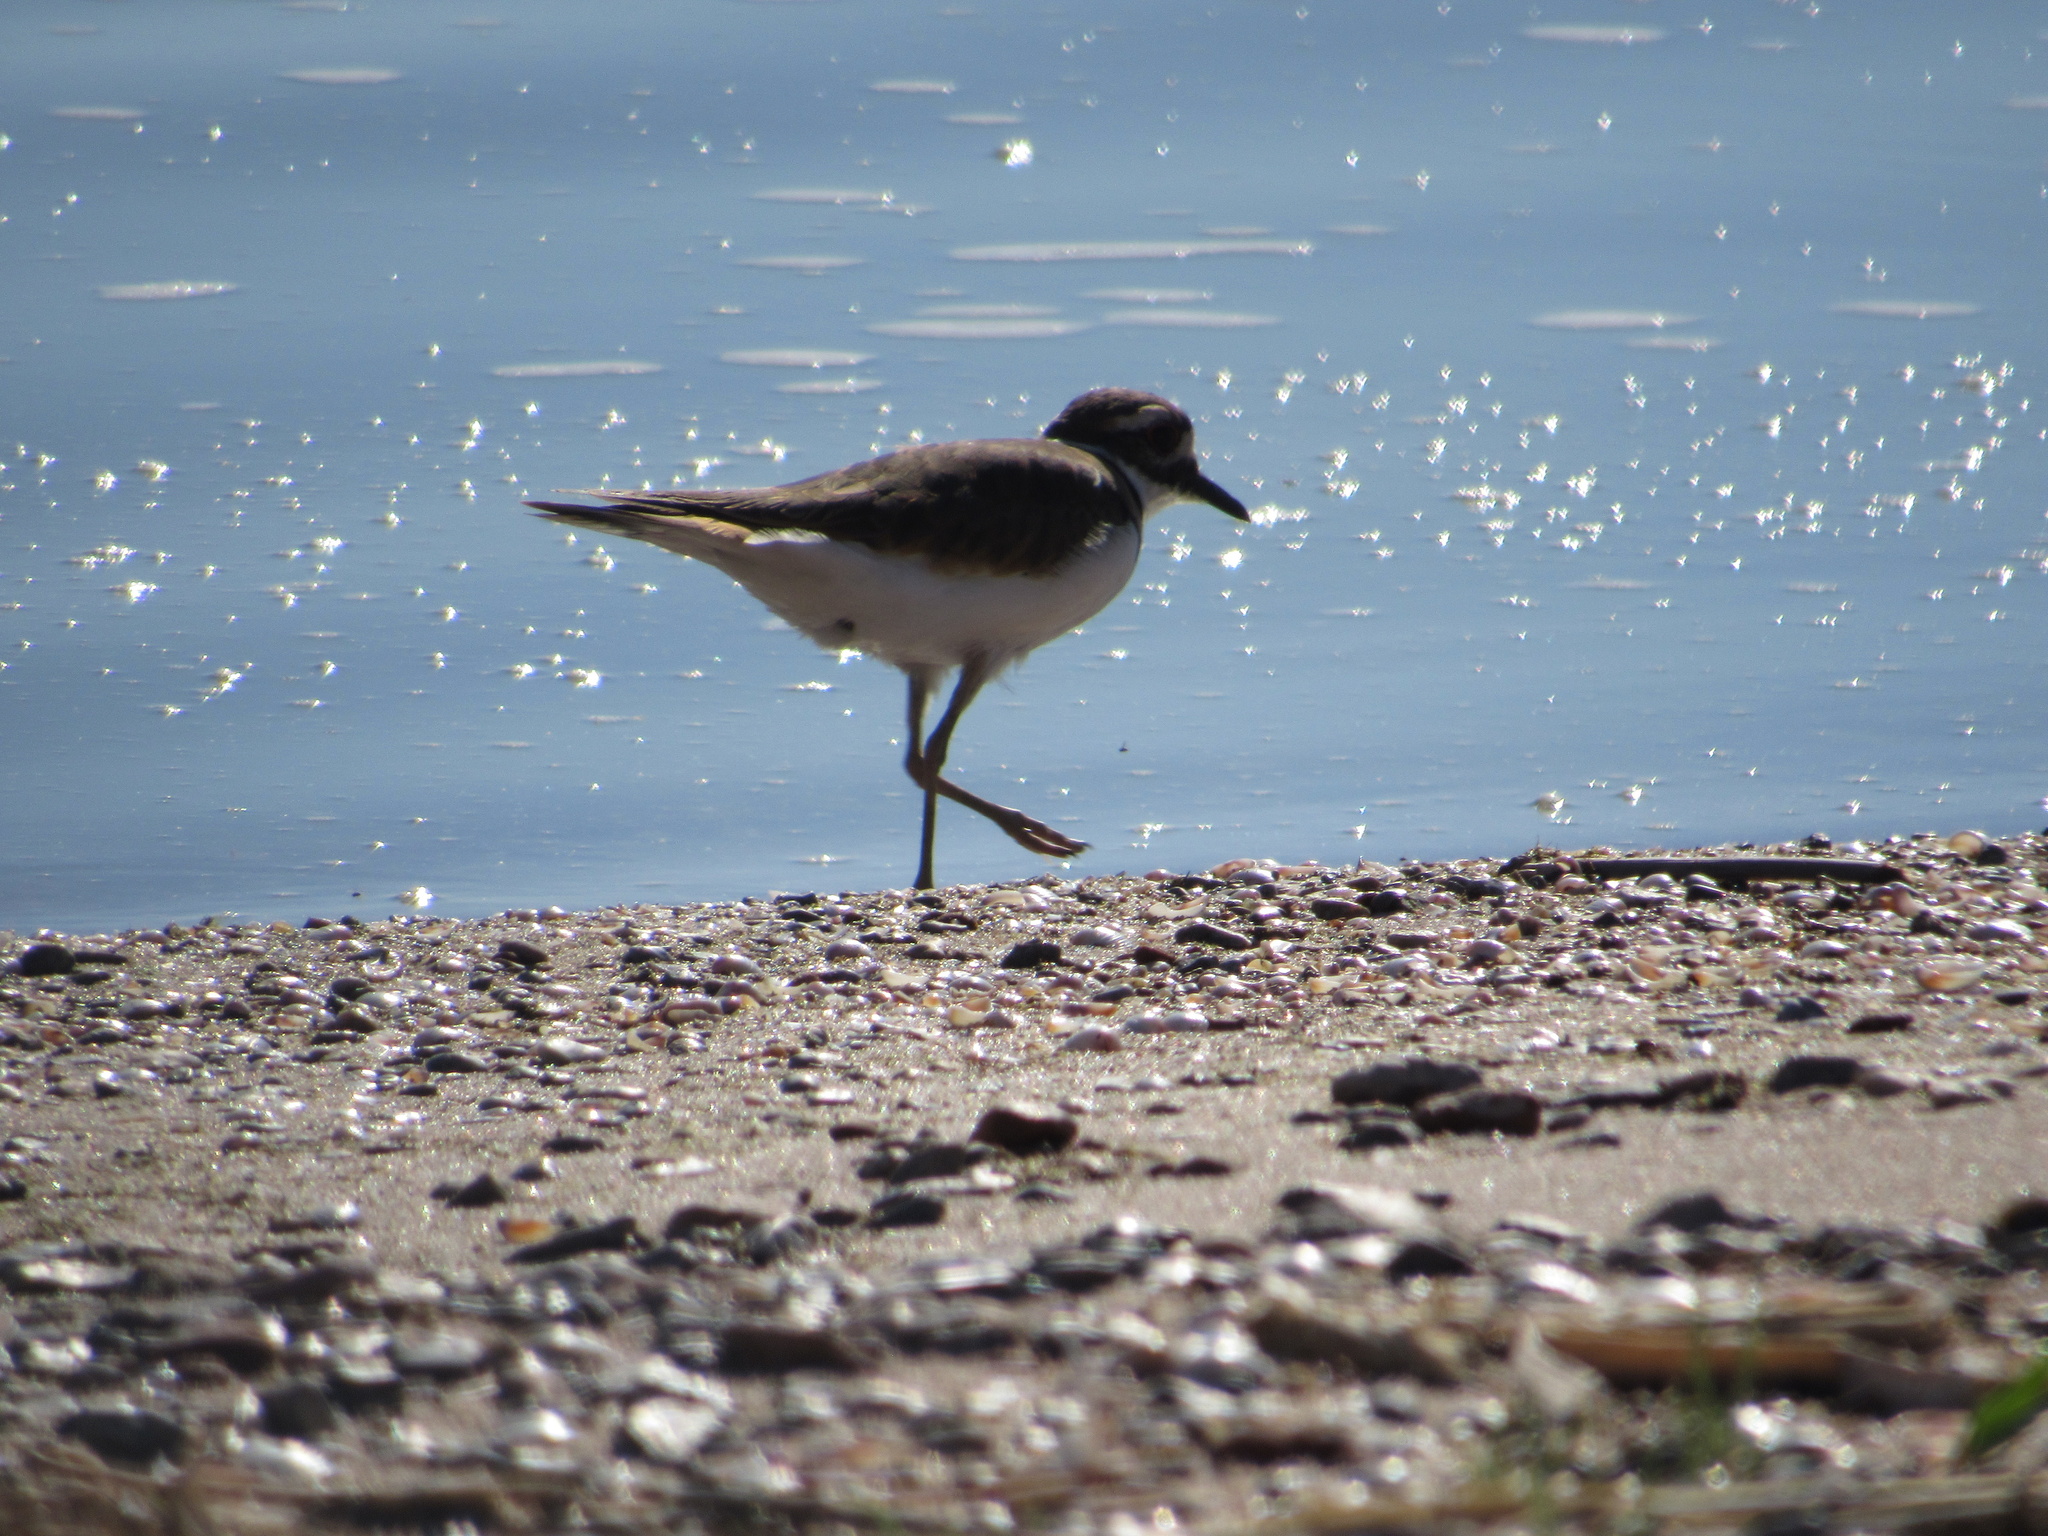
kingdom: Animalia
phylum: Chordata
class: Aves
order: Charadriiformes
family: Charadriidae
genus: Charadrius
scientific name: Charadrius vociferus
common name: Killdeer
